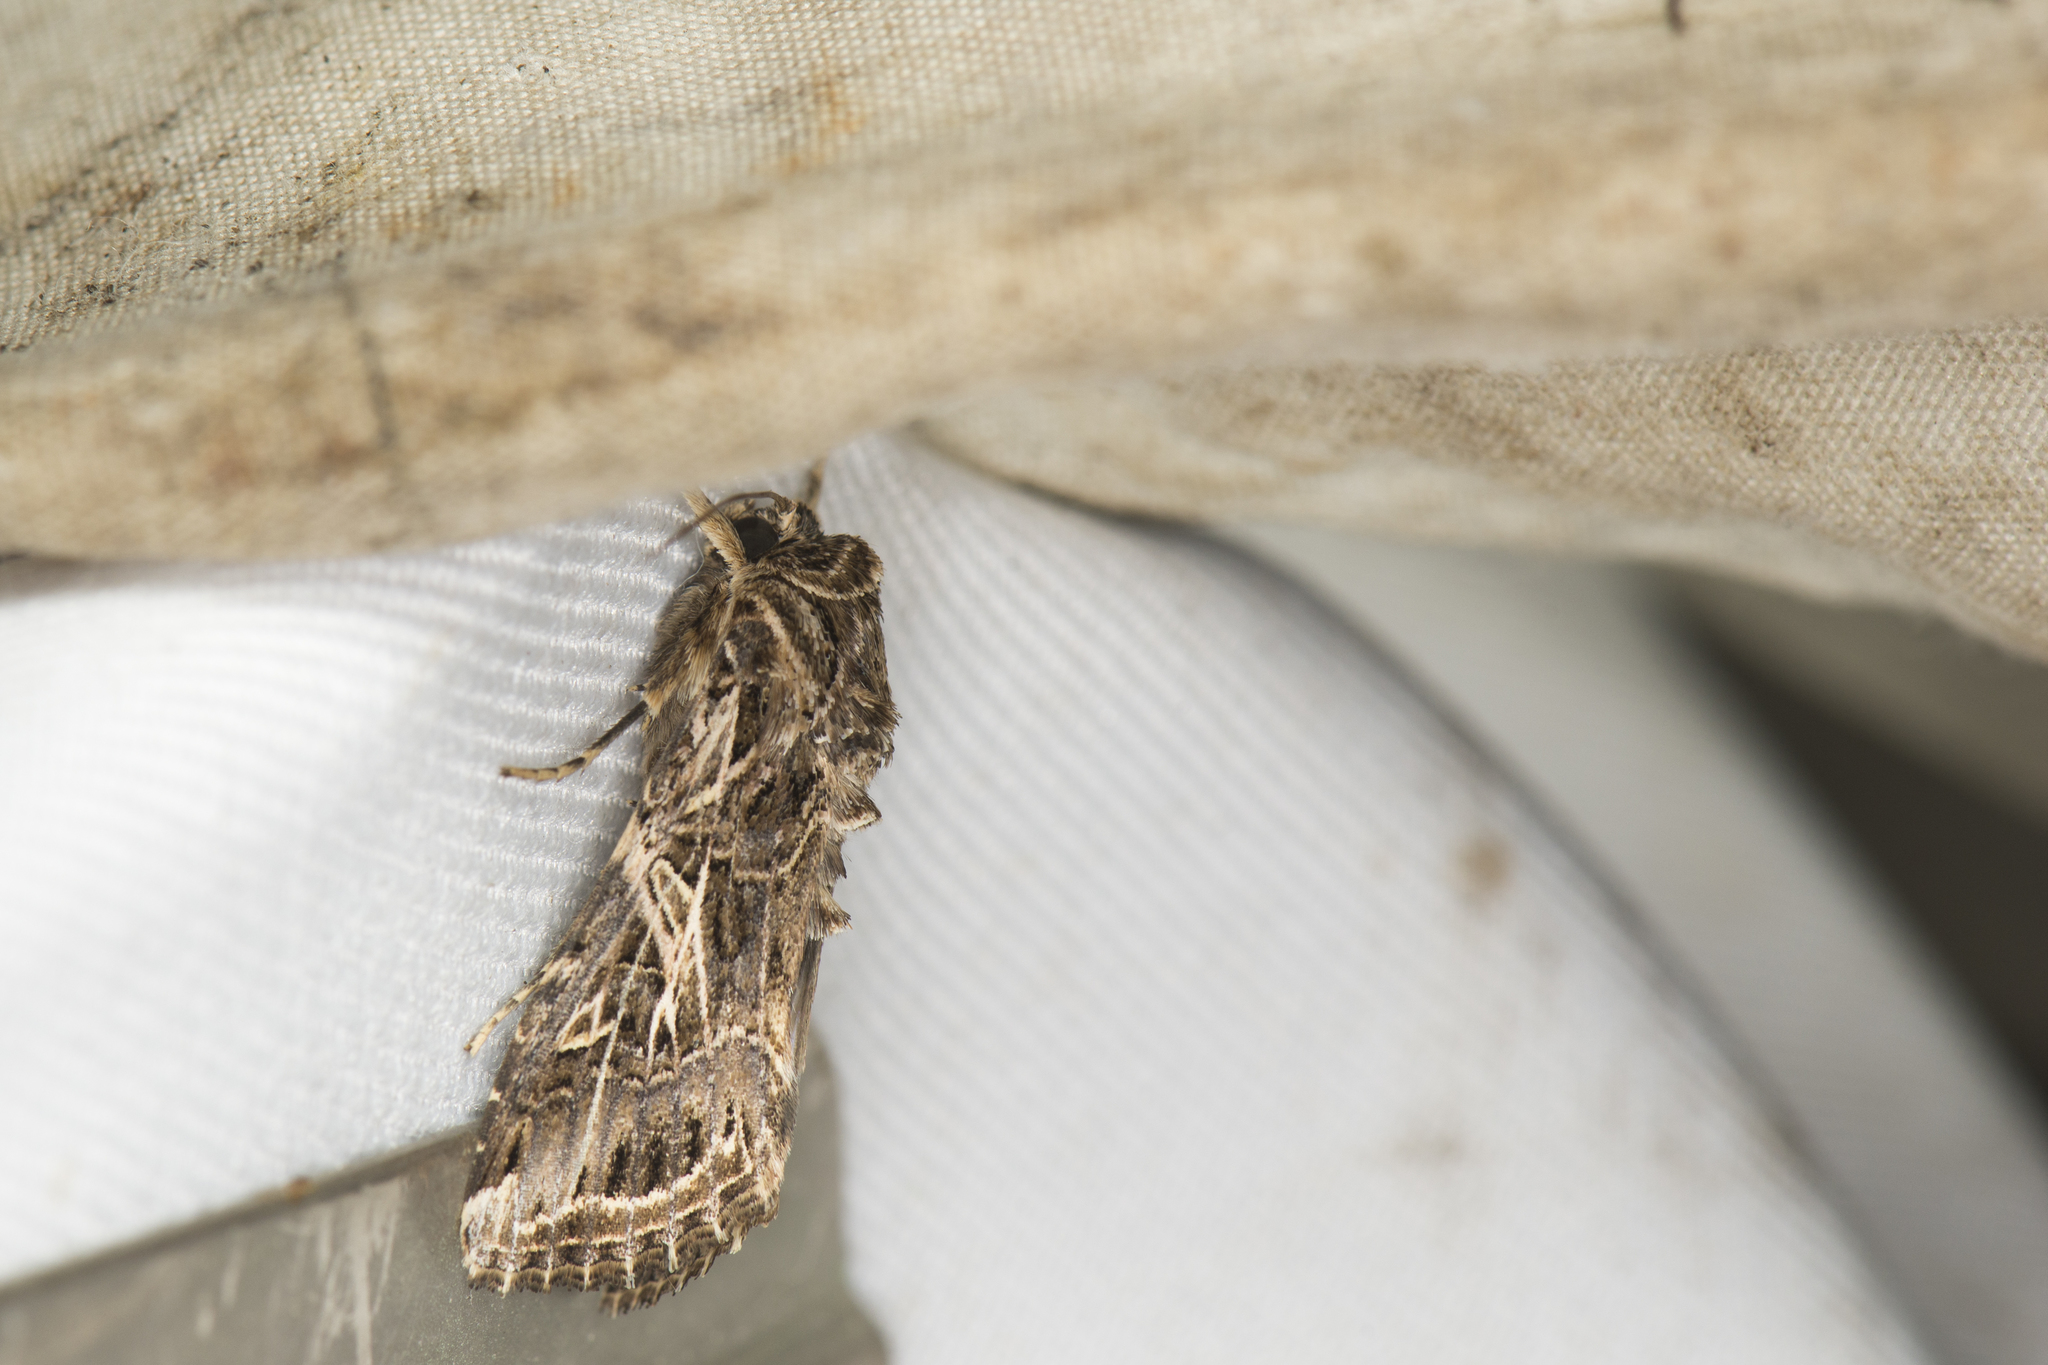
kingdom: Animalia
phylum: Arthropoda
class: Insecta
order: Lepidoptera
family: Noctuidae
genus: Spodoptera
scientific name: Spodoptera litura
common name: Asian cotton leafworm
